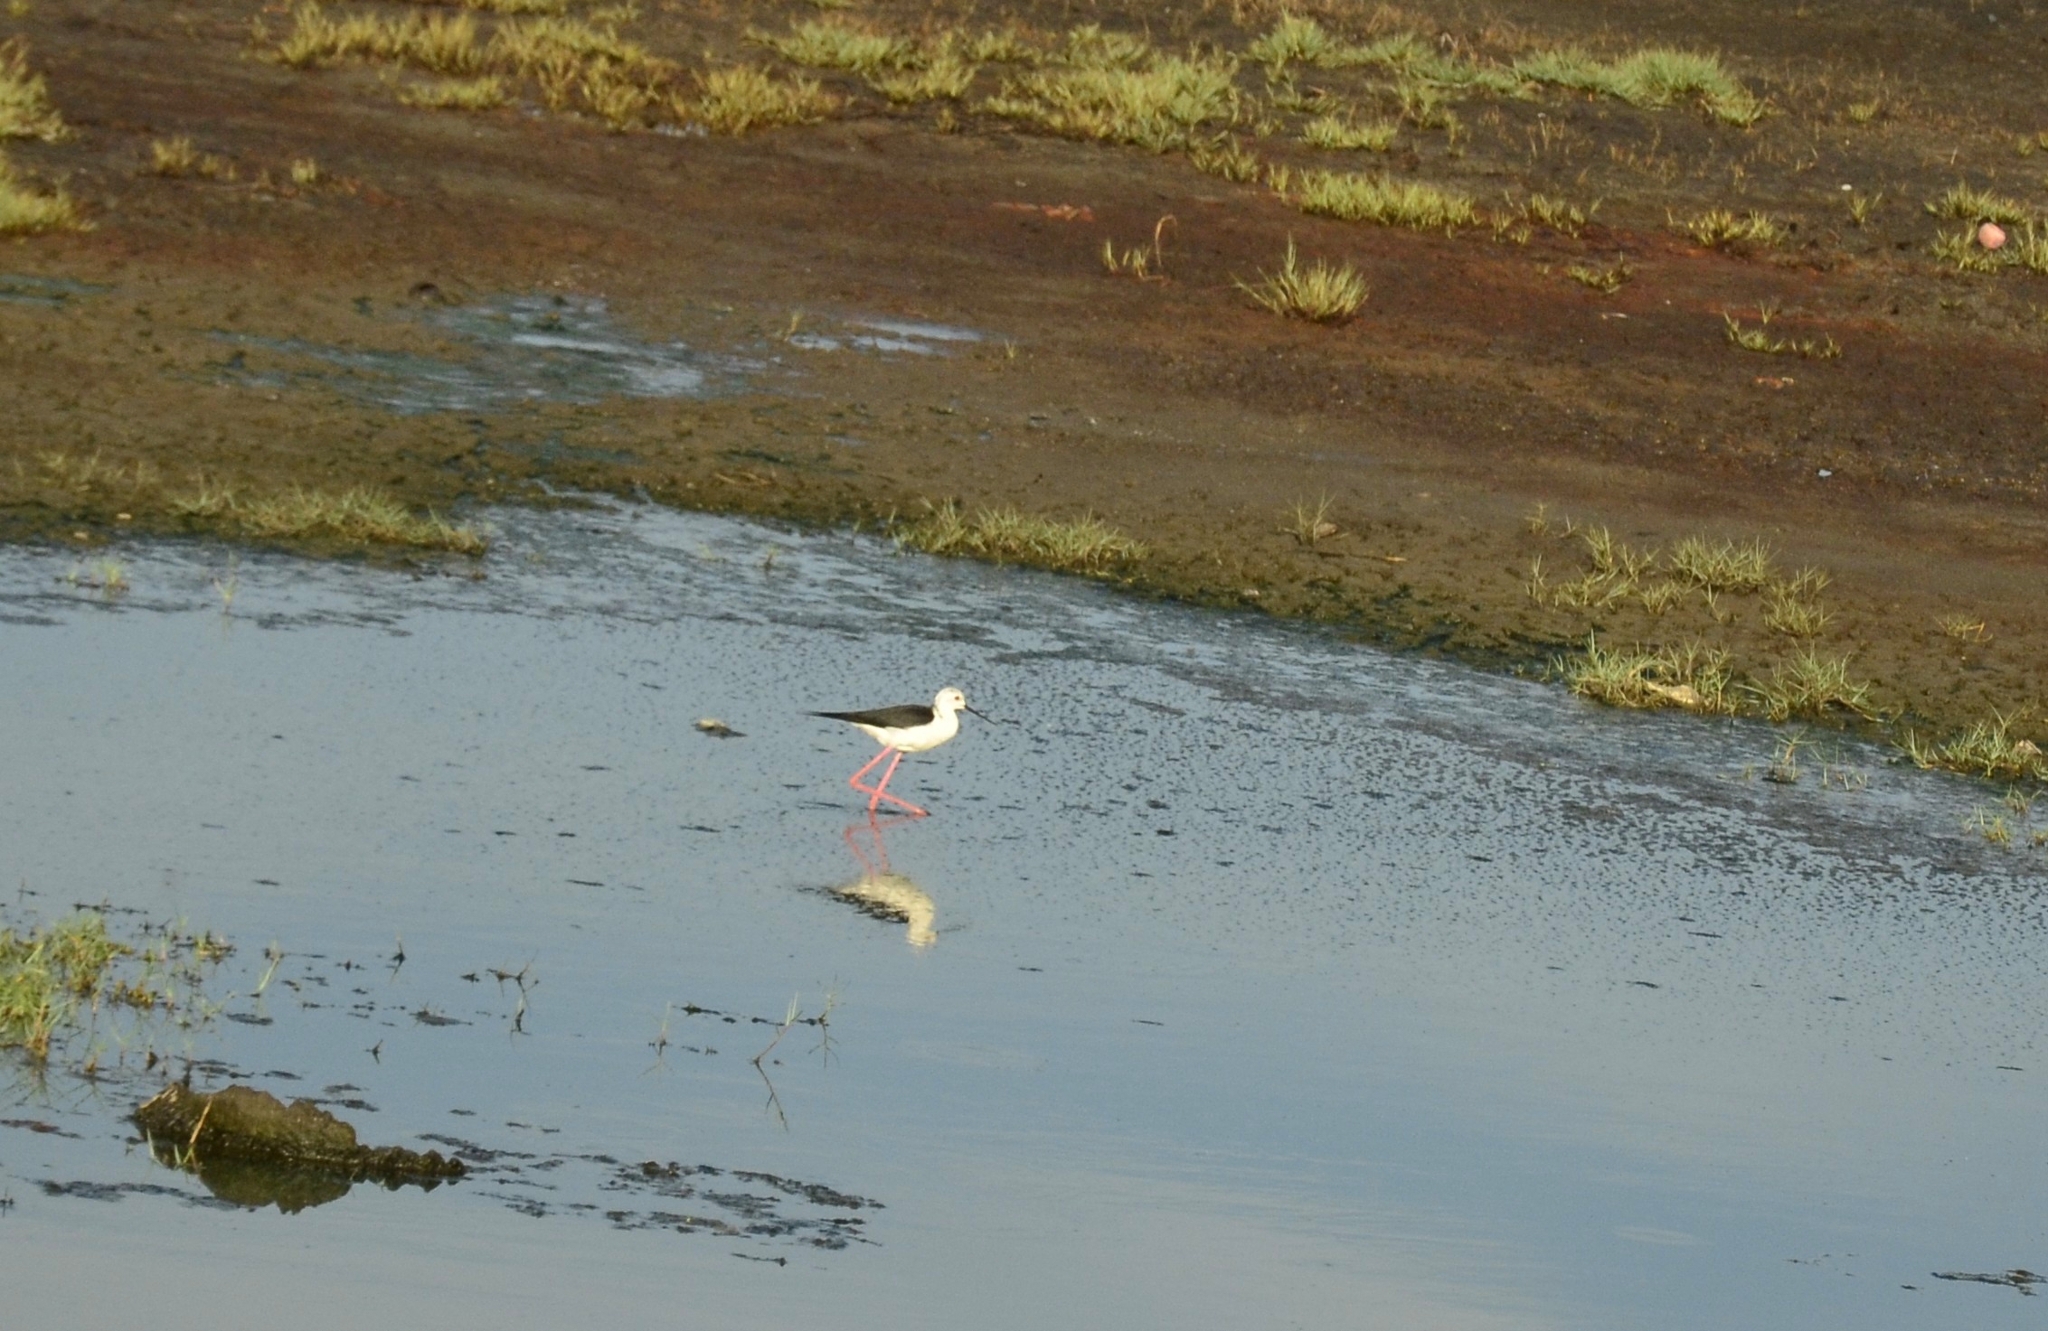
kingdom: Animalia
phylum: Chordata
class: Aves
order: Charadriiformes
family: Recurvirostridae
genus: Himantopus
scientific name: Himantopus himantopus
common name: Black-winged stilt
